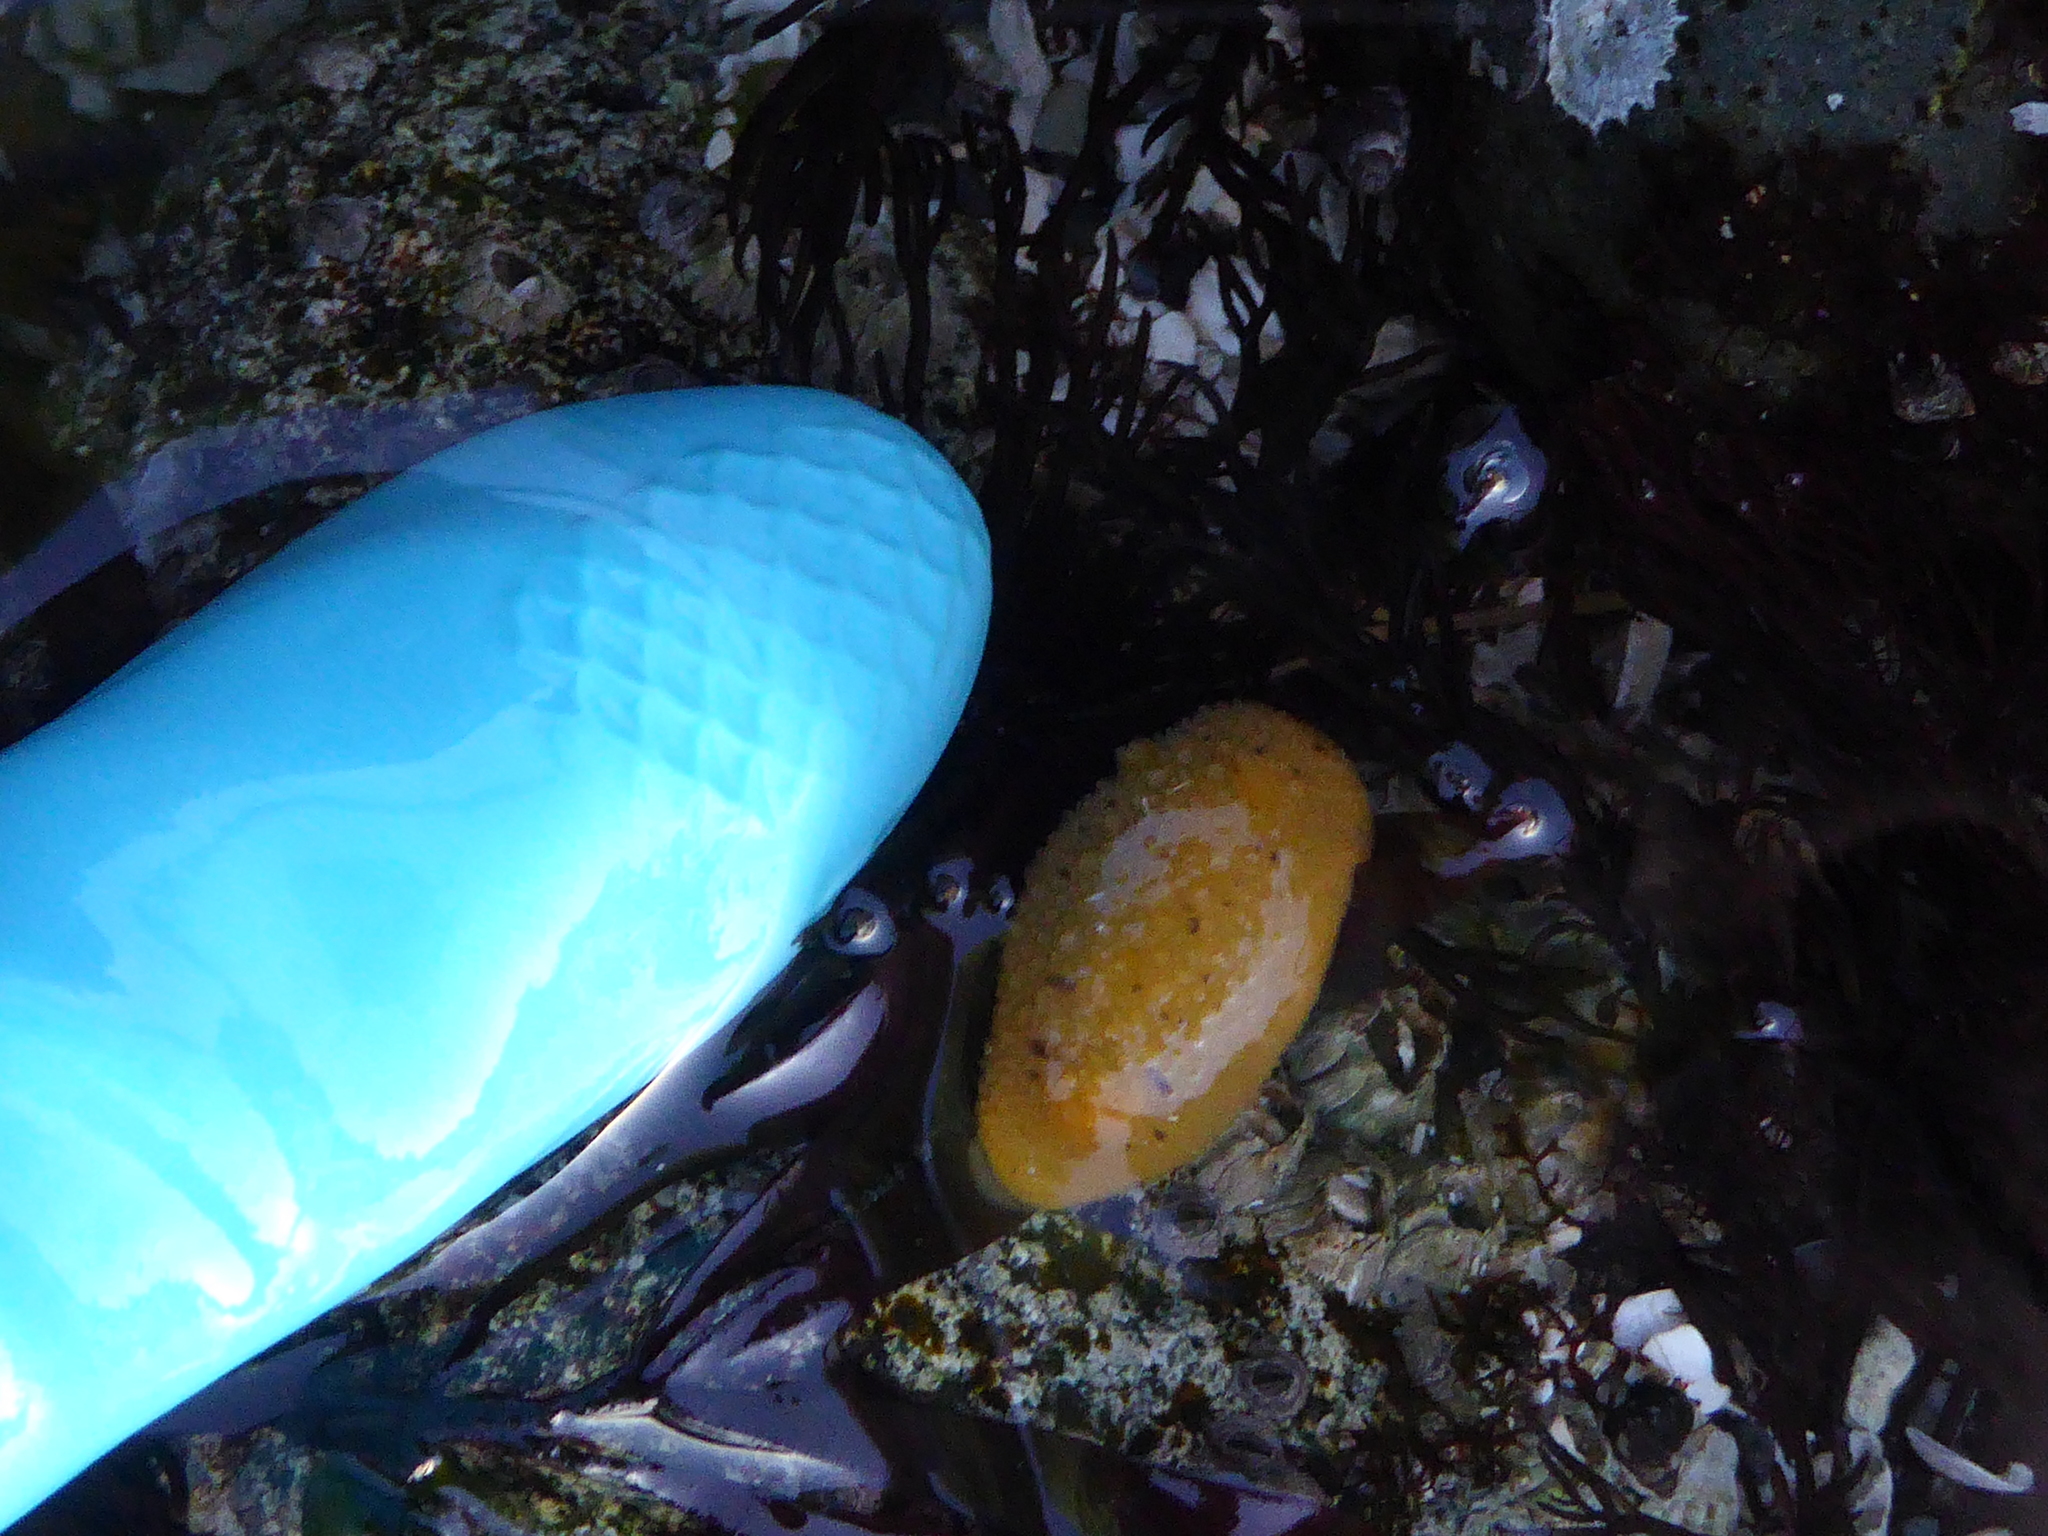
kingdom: Animalia
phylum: Mollusca
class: Gastropoda
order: Nudibranchia
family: Dorididae
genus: Doris
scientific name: Doris montereyensis
